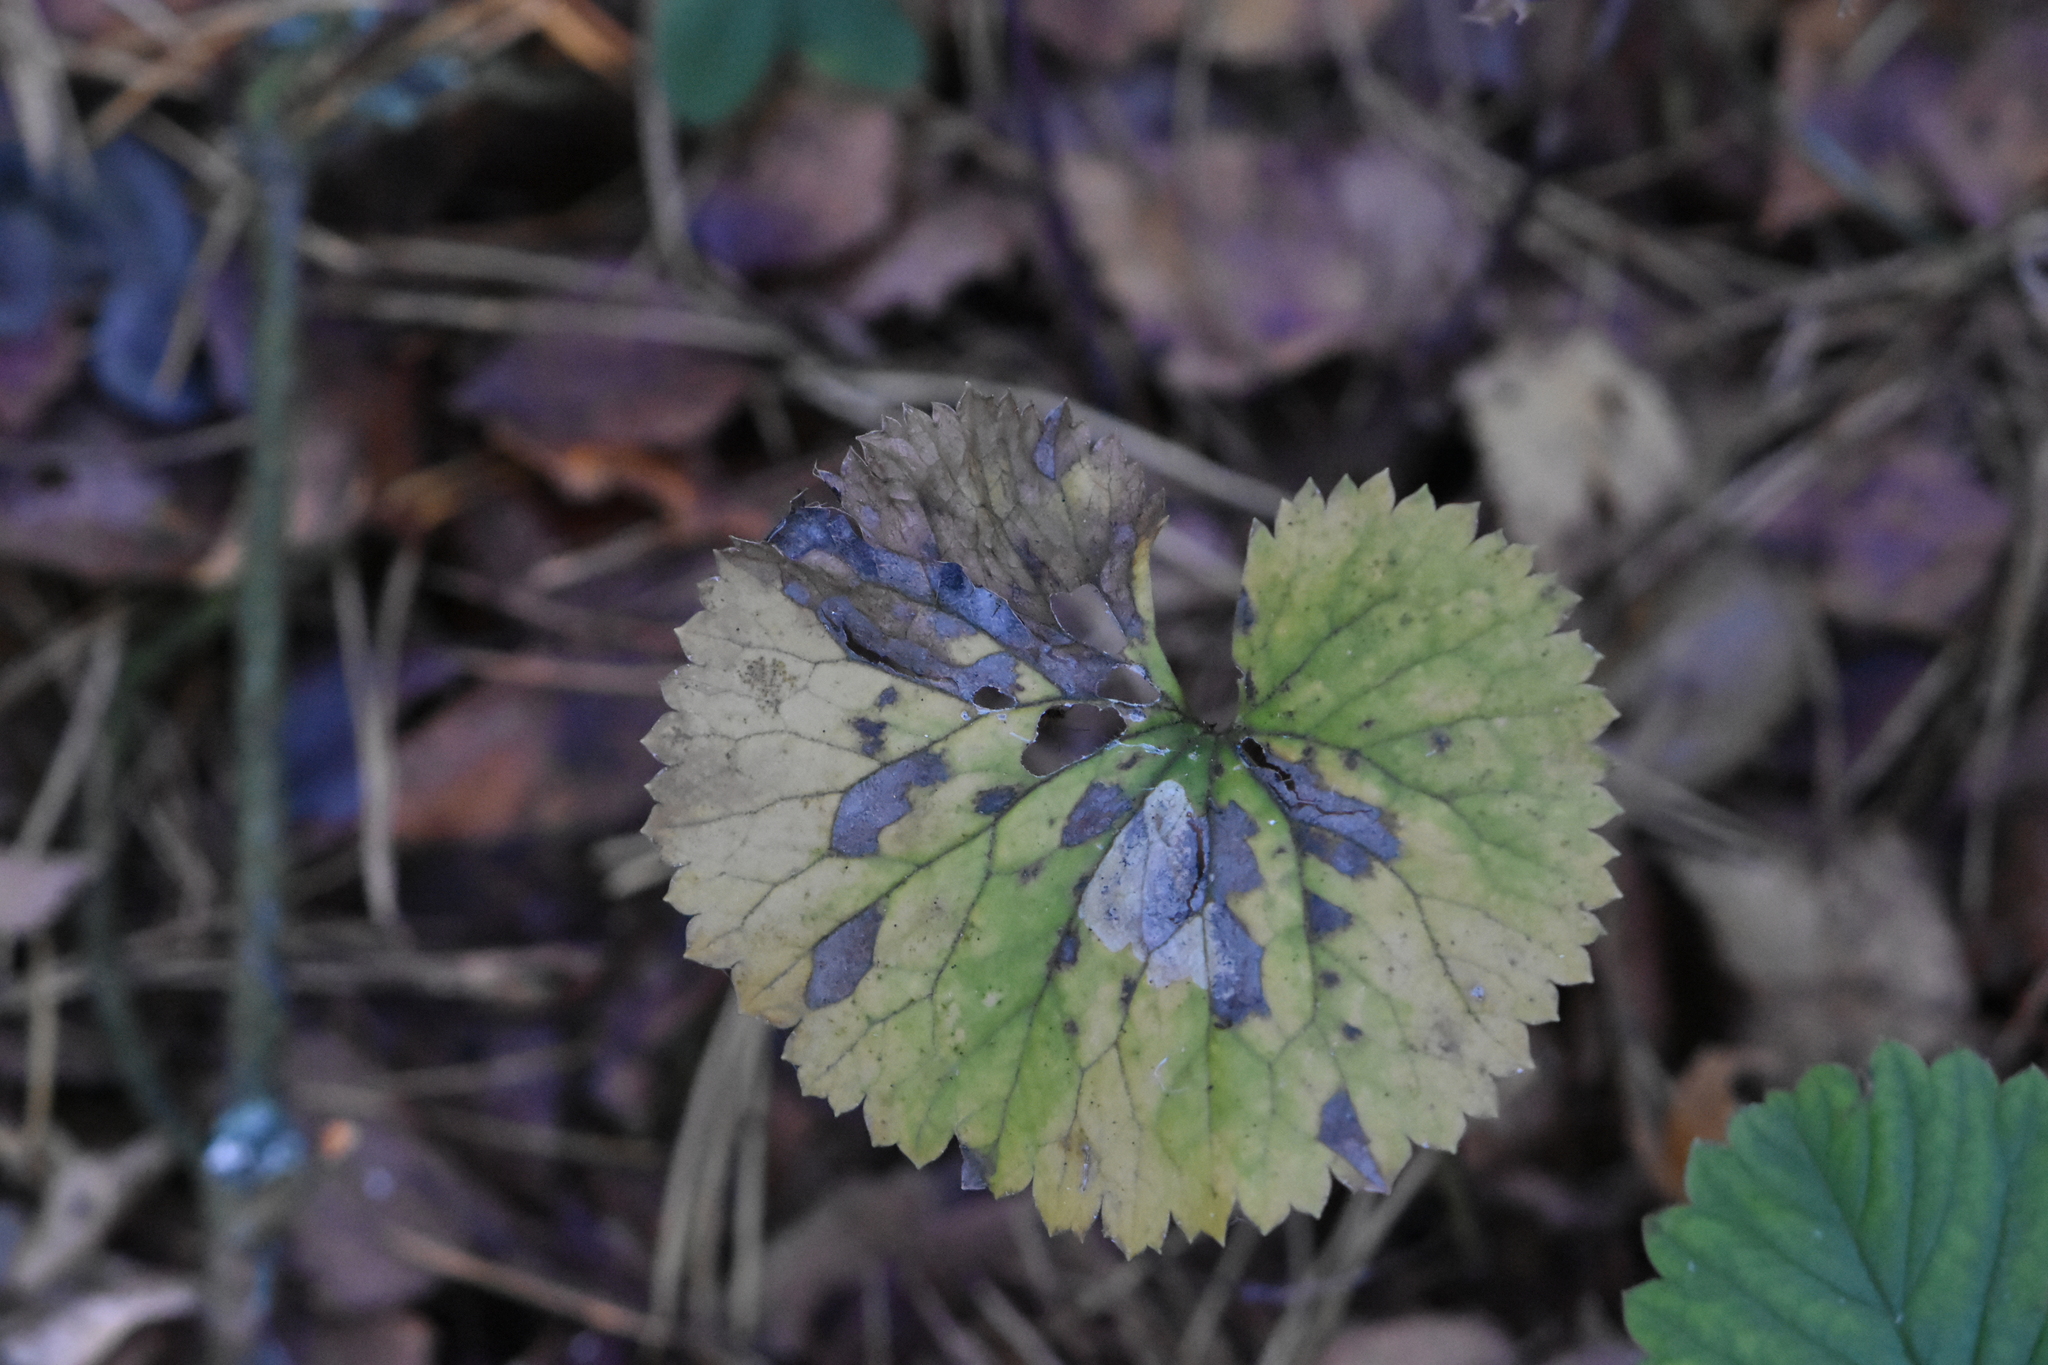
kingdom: Plantae
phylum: Tracheophyta
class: Magnoliopsida
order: Ranunculales
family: Ranunculaceae
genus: Ranunculus
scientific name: Ranunculus cassubicus
